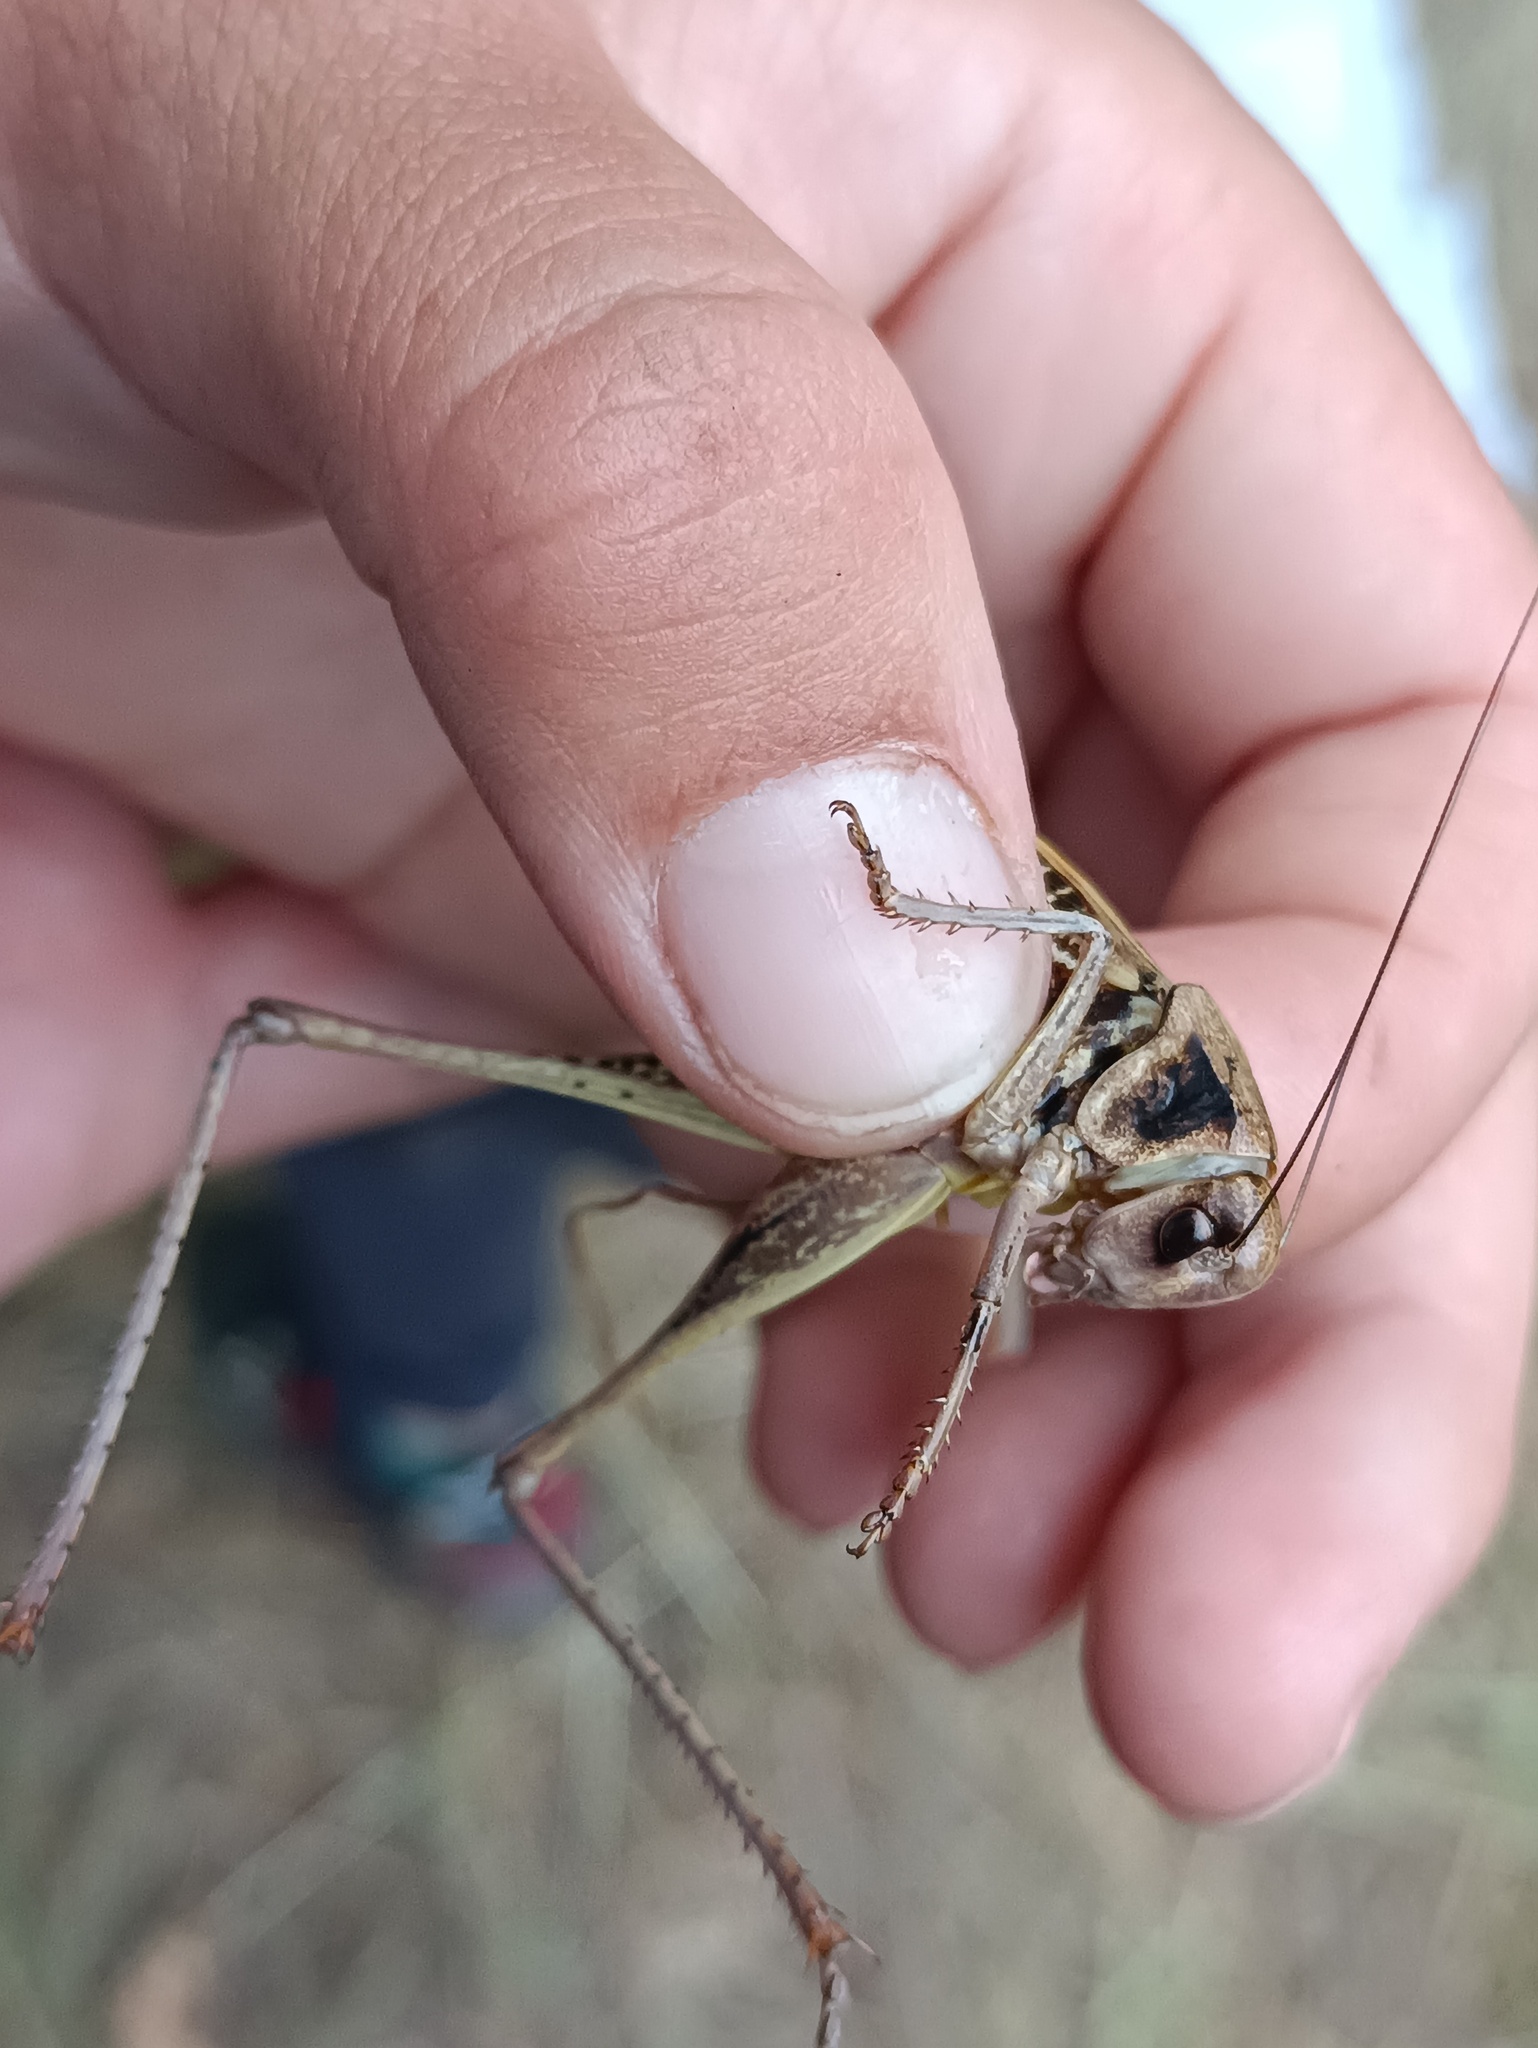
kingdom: Animalia
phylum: Arthropoda
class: Insecta
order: Orthoptera
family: Tettigoniidae
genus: Decticus
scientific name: Decticus verrucivorus
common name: Wart-biter
